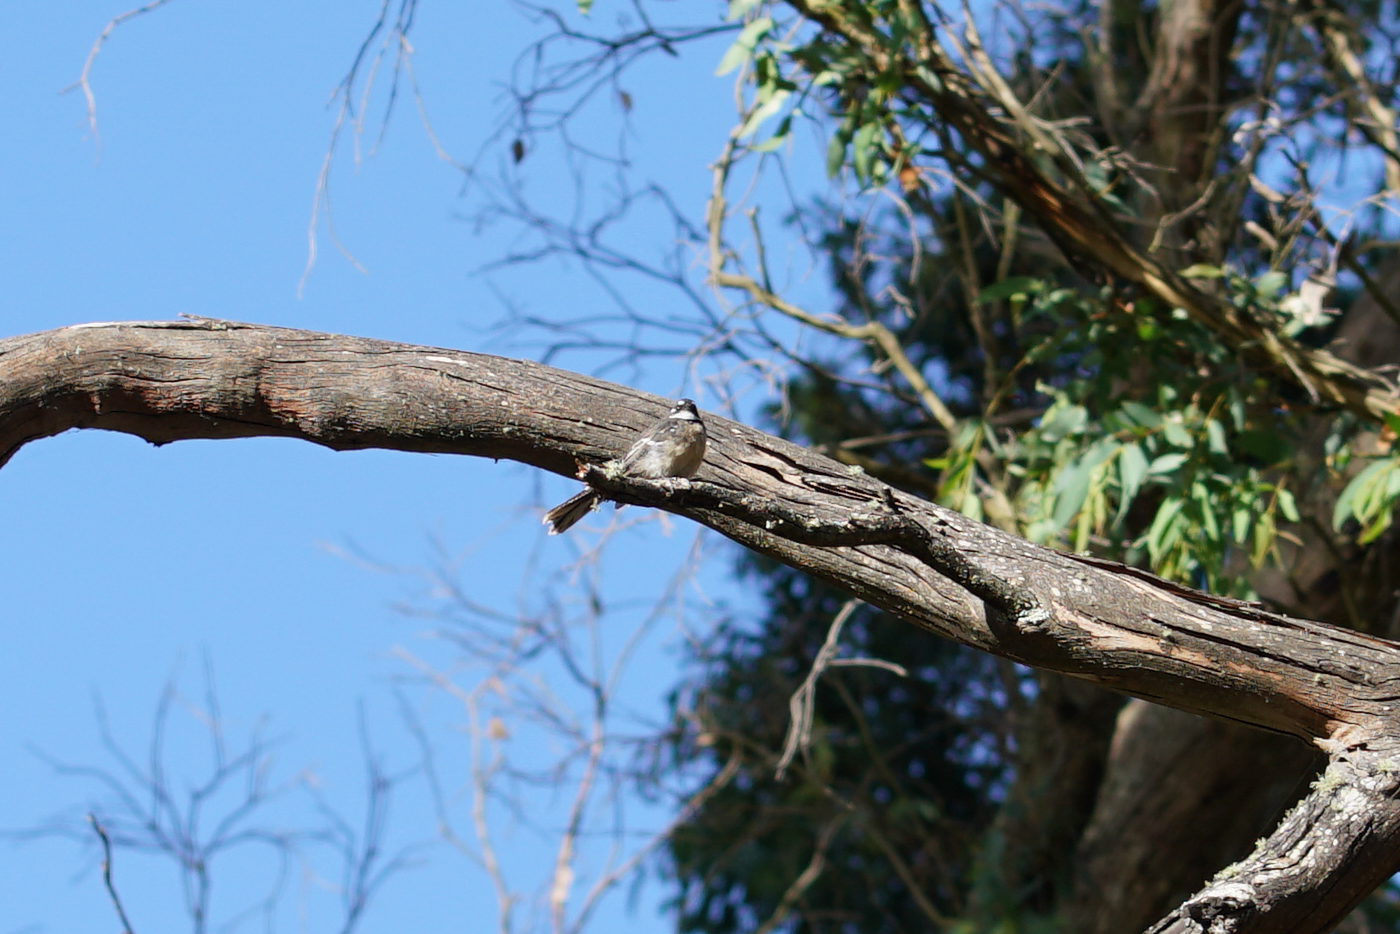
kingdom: Animalia
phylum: Chordata
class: Aves
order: Passeriformes
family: Rhipiduridae
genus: Rhipidura
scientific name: Rhipidura albiscapa
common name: Grey fantail
